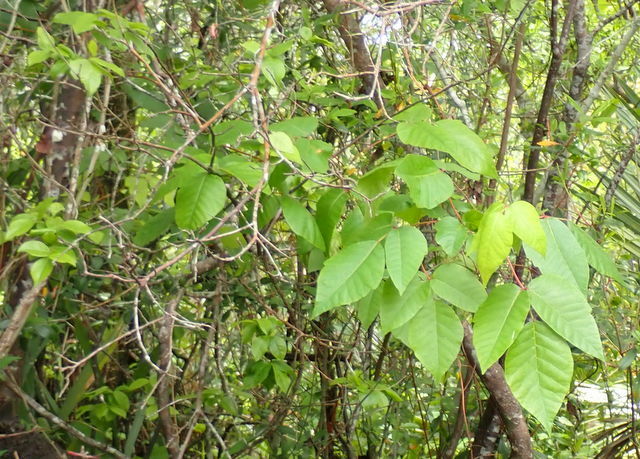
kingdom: Plantae
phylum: Tracheophyta
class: Magnoliopsida
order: Sapindales
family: Anacardiaceae
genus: Toxicodendron
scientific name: Toxicodendron radicans
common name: Poison ivy
